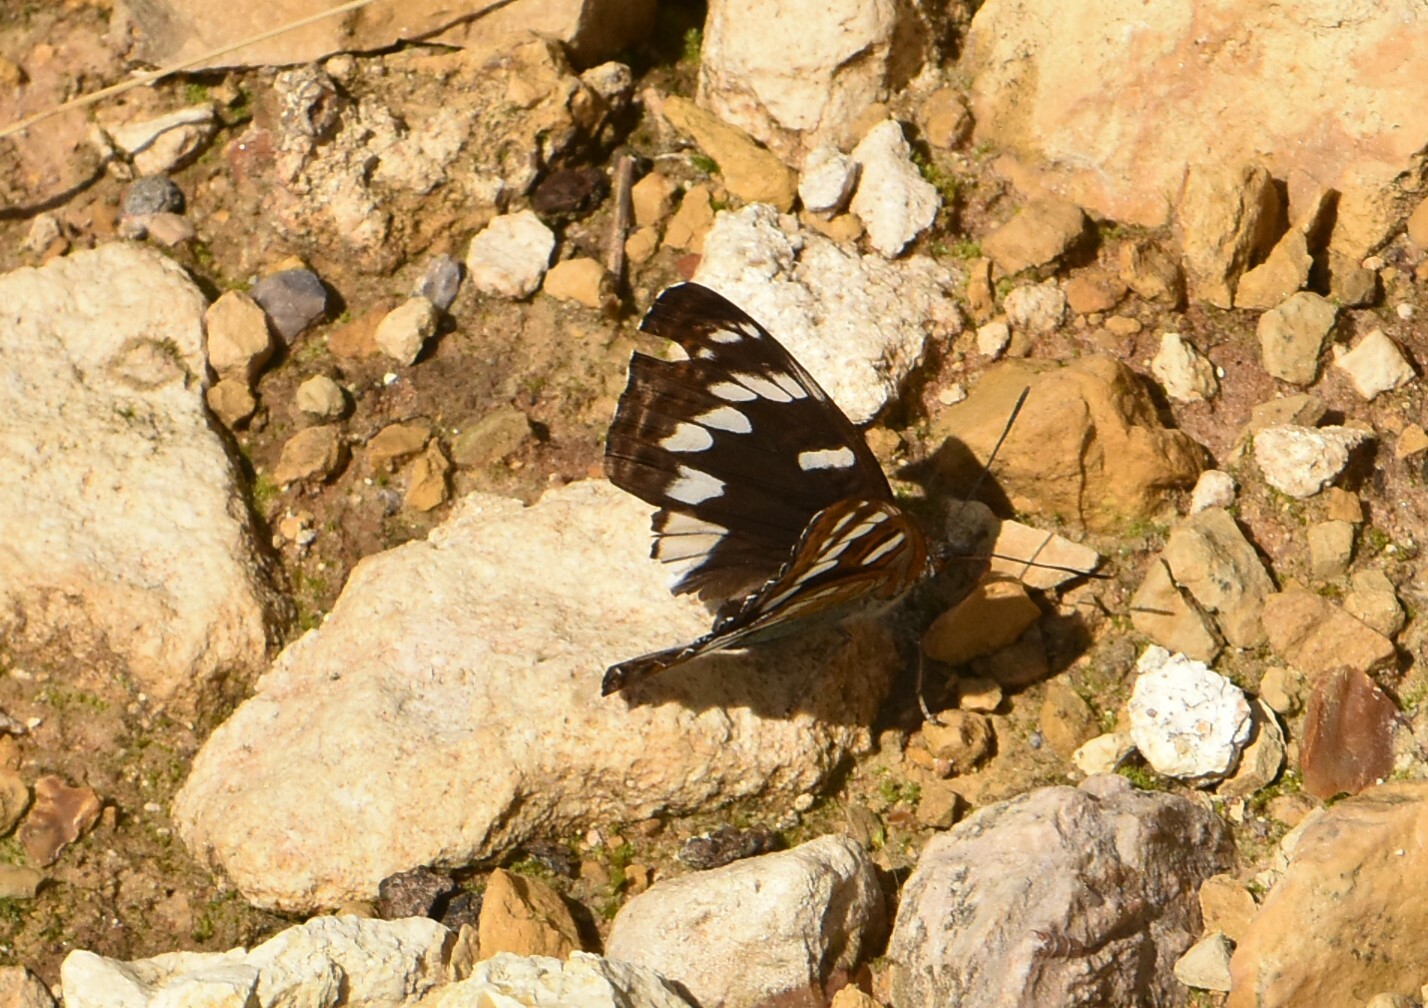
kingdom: Animalia
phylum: Arthropoda
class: Insecta
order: Lepidoptera
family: Nymphalidae
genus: Limenitis
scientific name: Limenitis populi
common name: Poplar admiral
